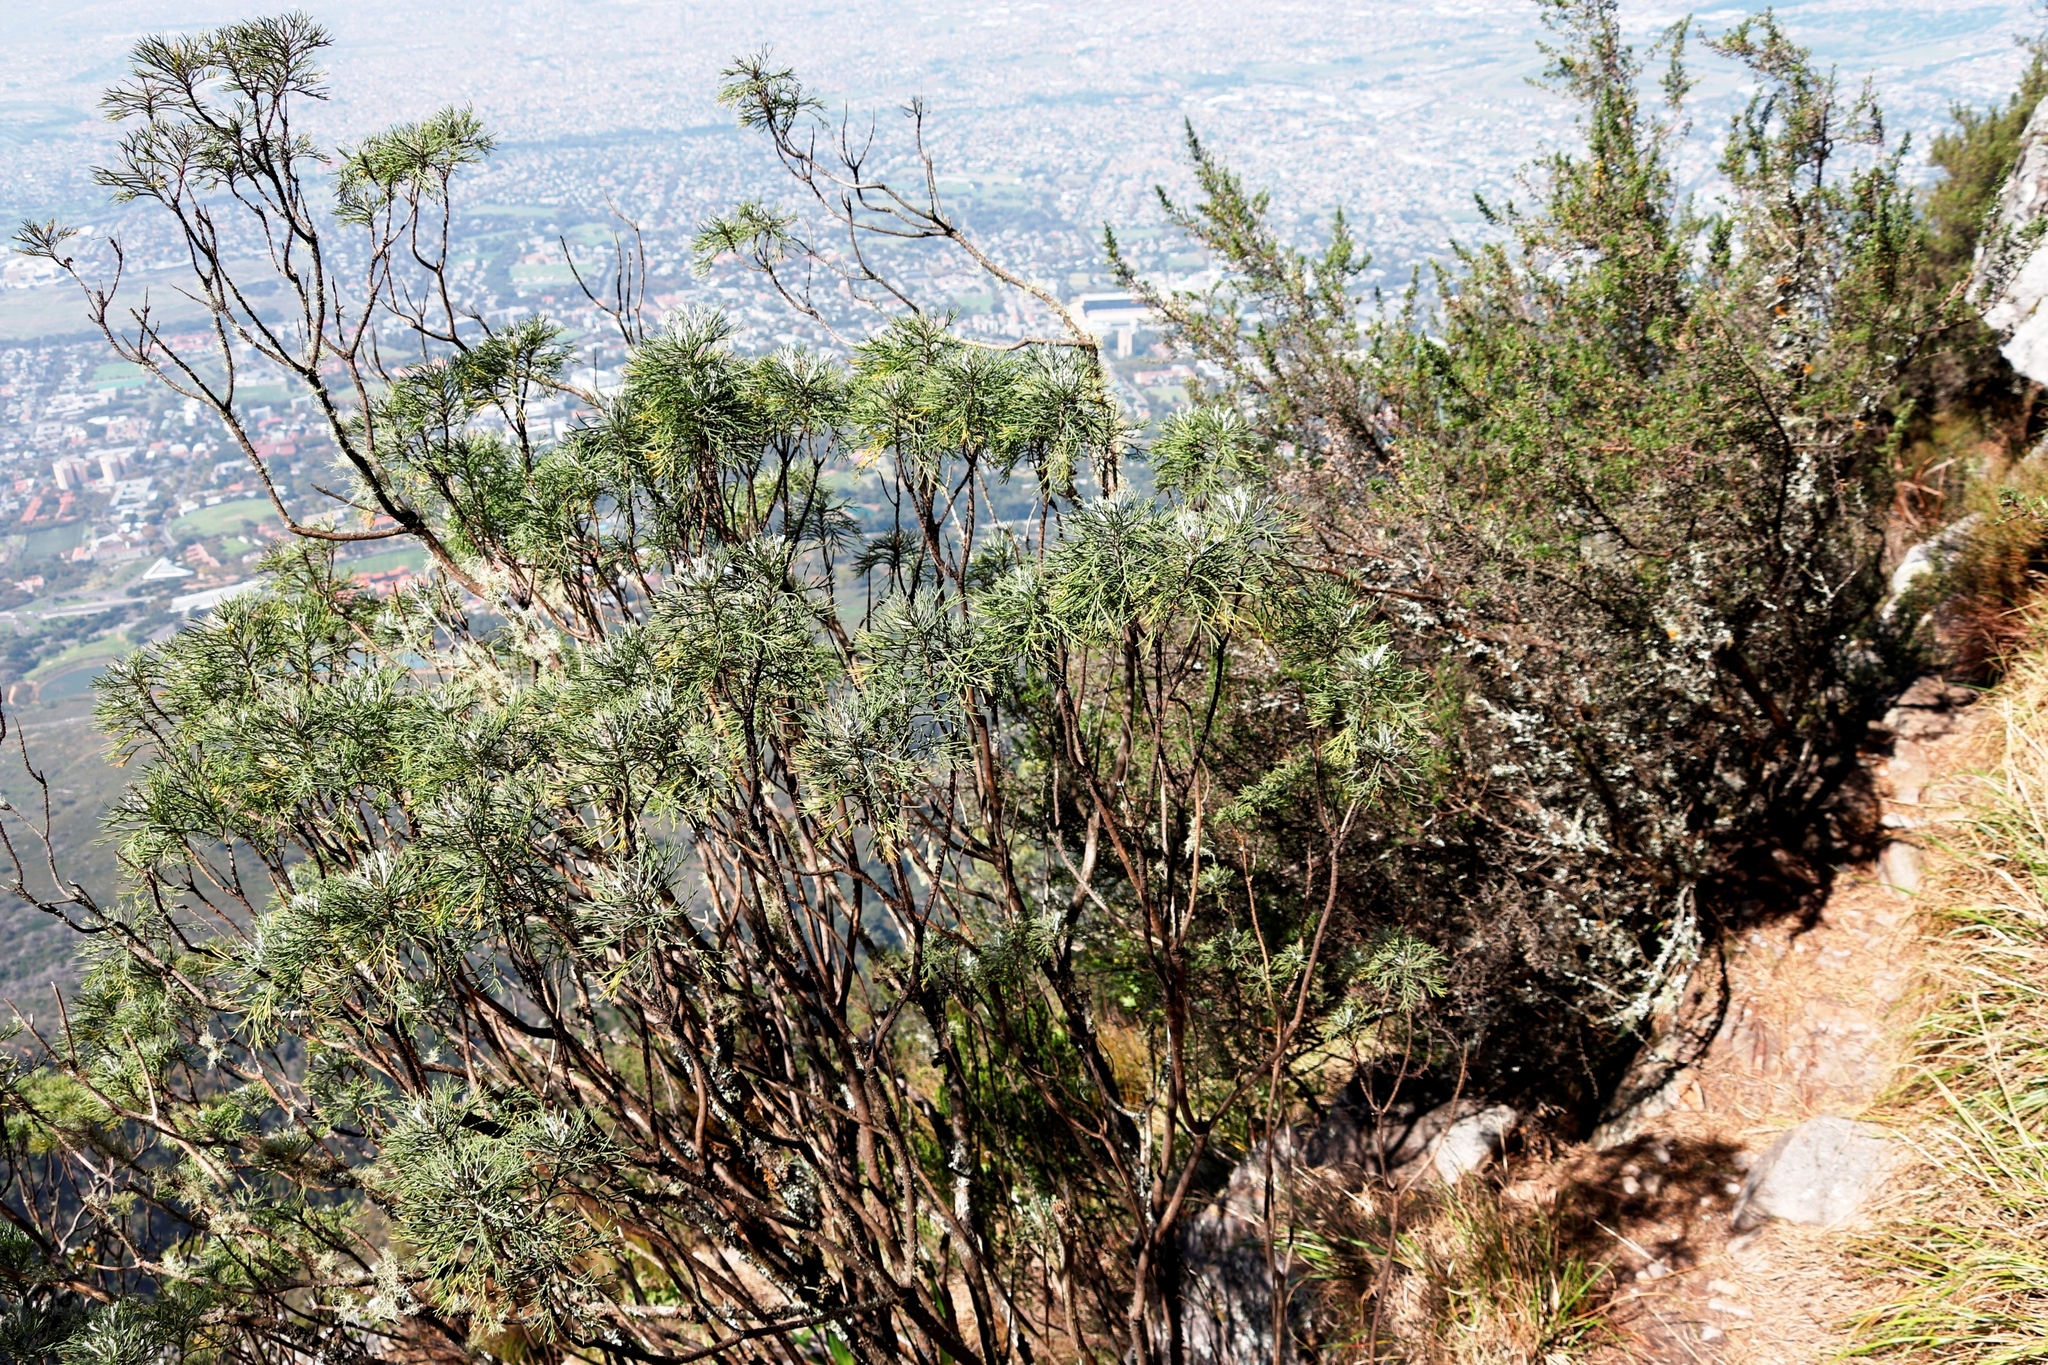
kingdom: Plantae
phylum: Tracheophyta
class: Magnoliopsida
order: Asterales
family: Asteraceae
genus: Athanasia
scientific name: Athanasia crithmifolia
